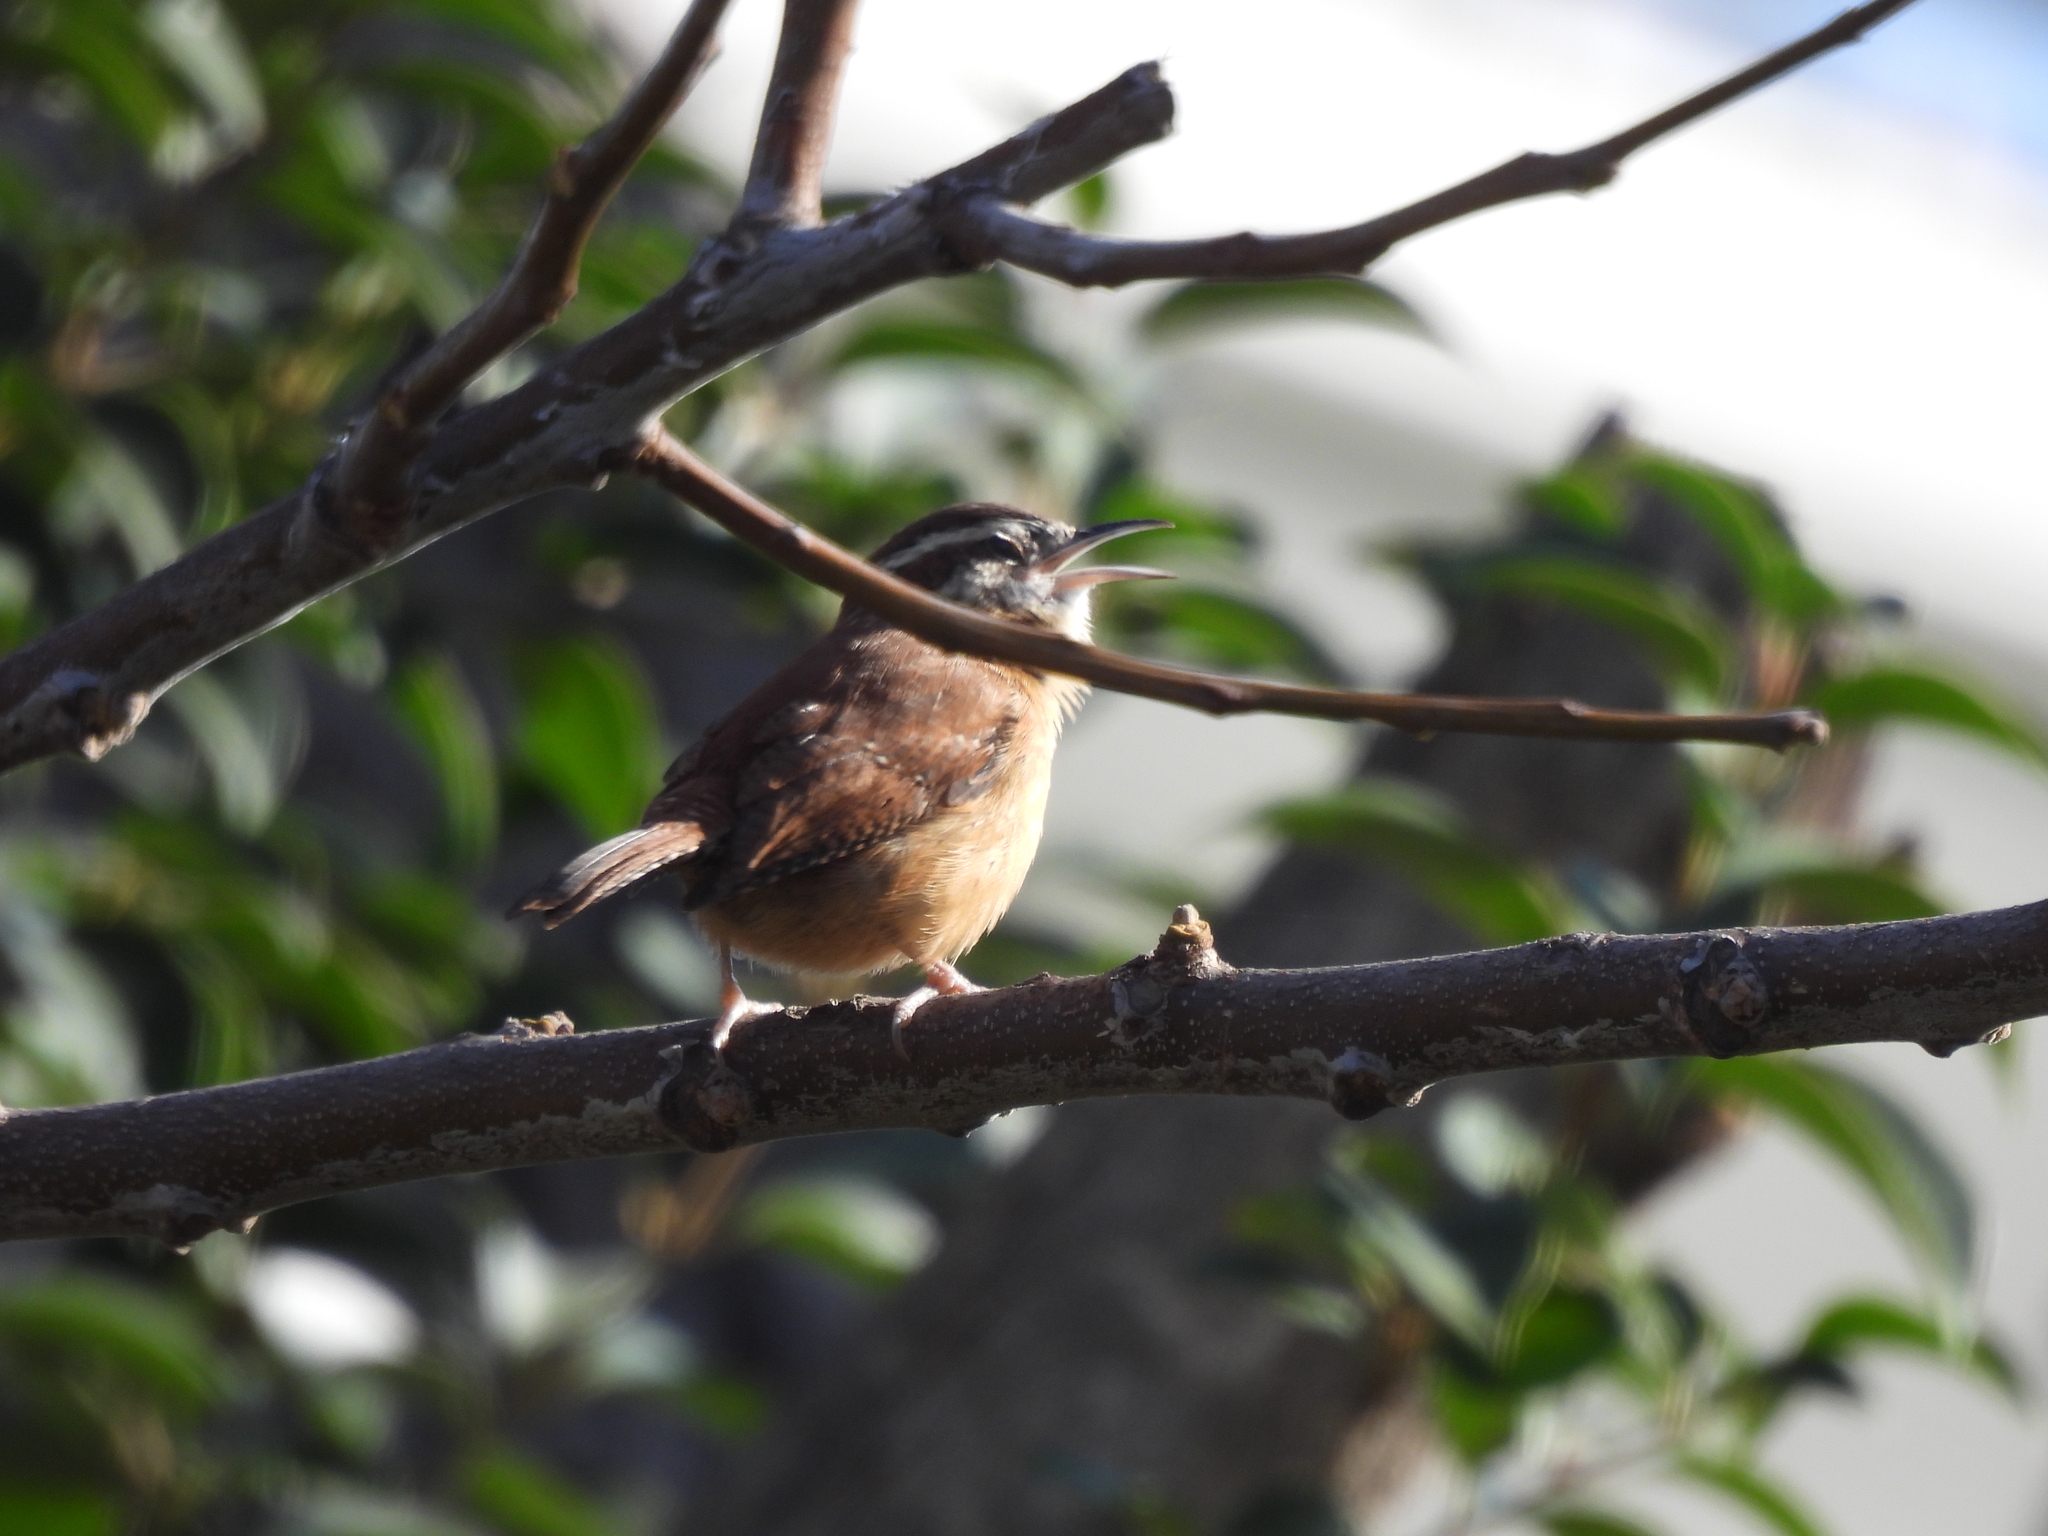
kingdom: Animalia
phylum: Chordata
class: Aves
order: Passeriformes
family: Troglodytidae
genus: Thryothorus
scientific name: Thryothorus ludovicianus
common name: Carolina wren
